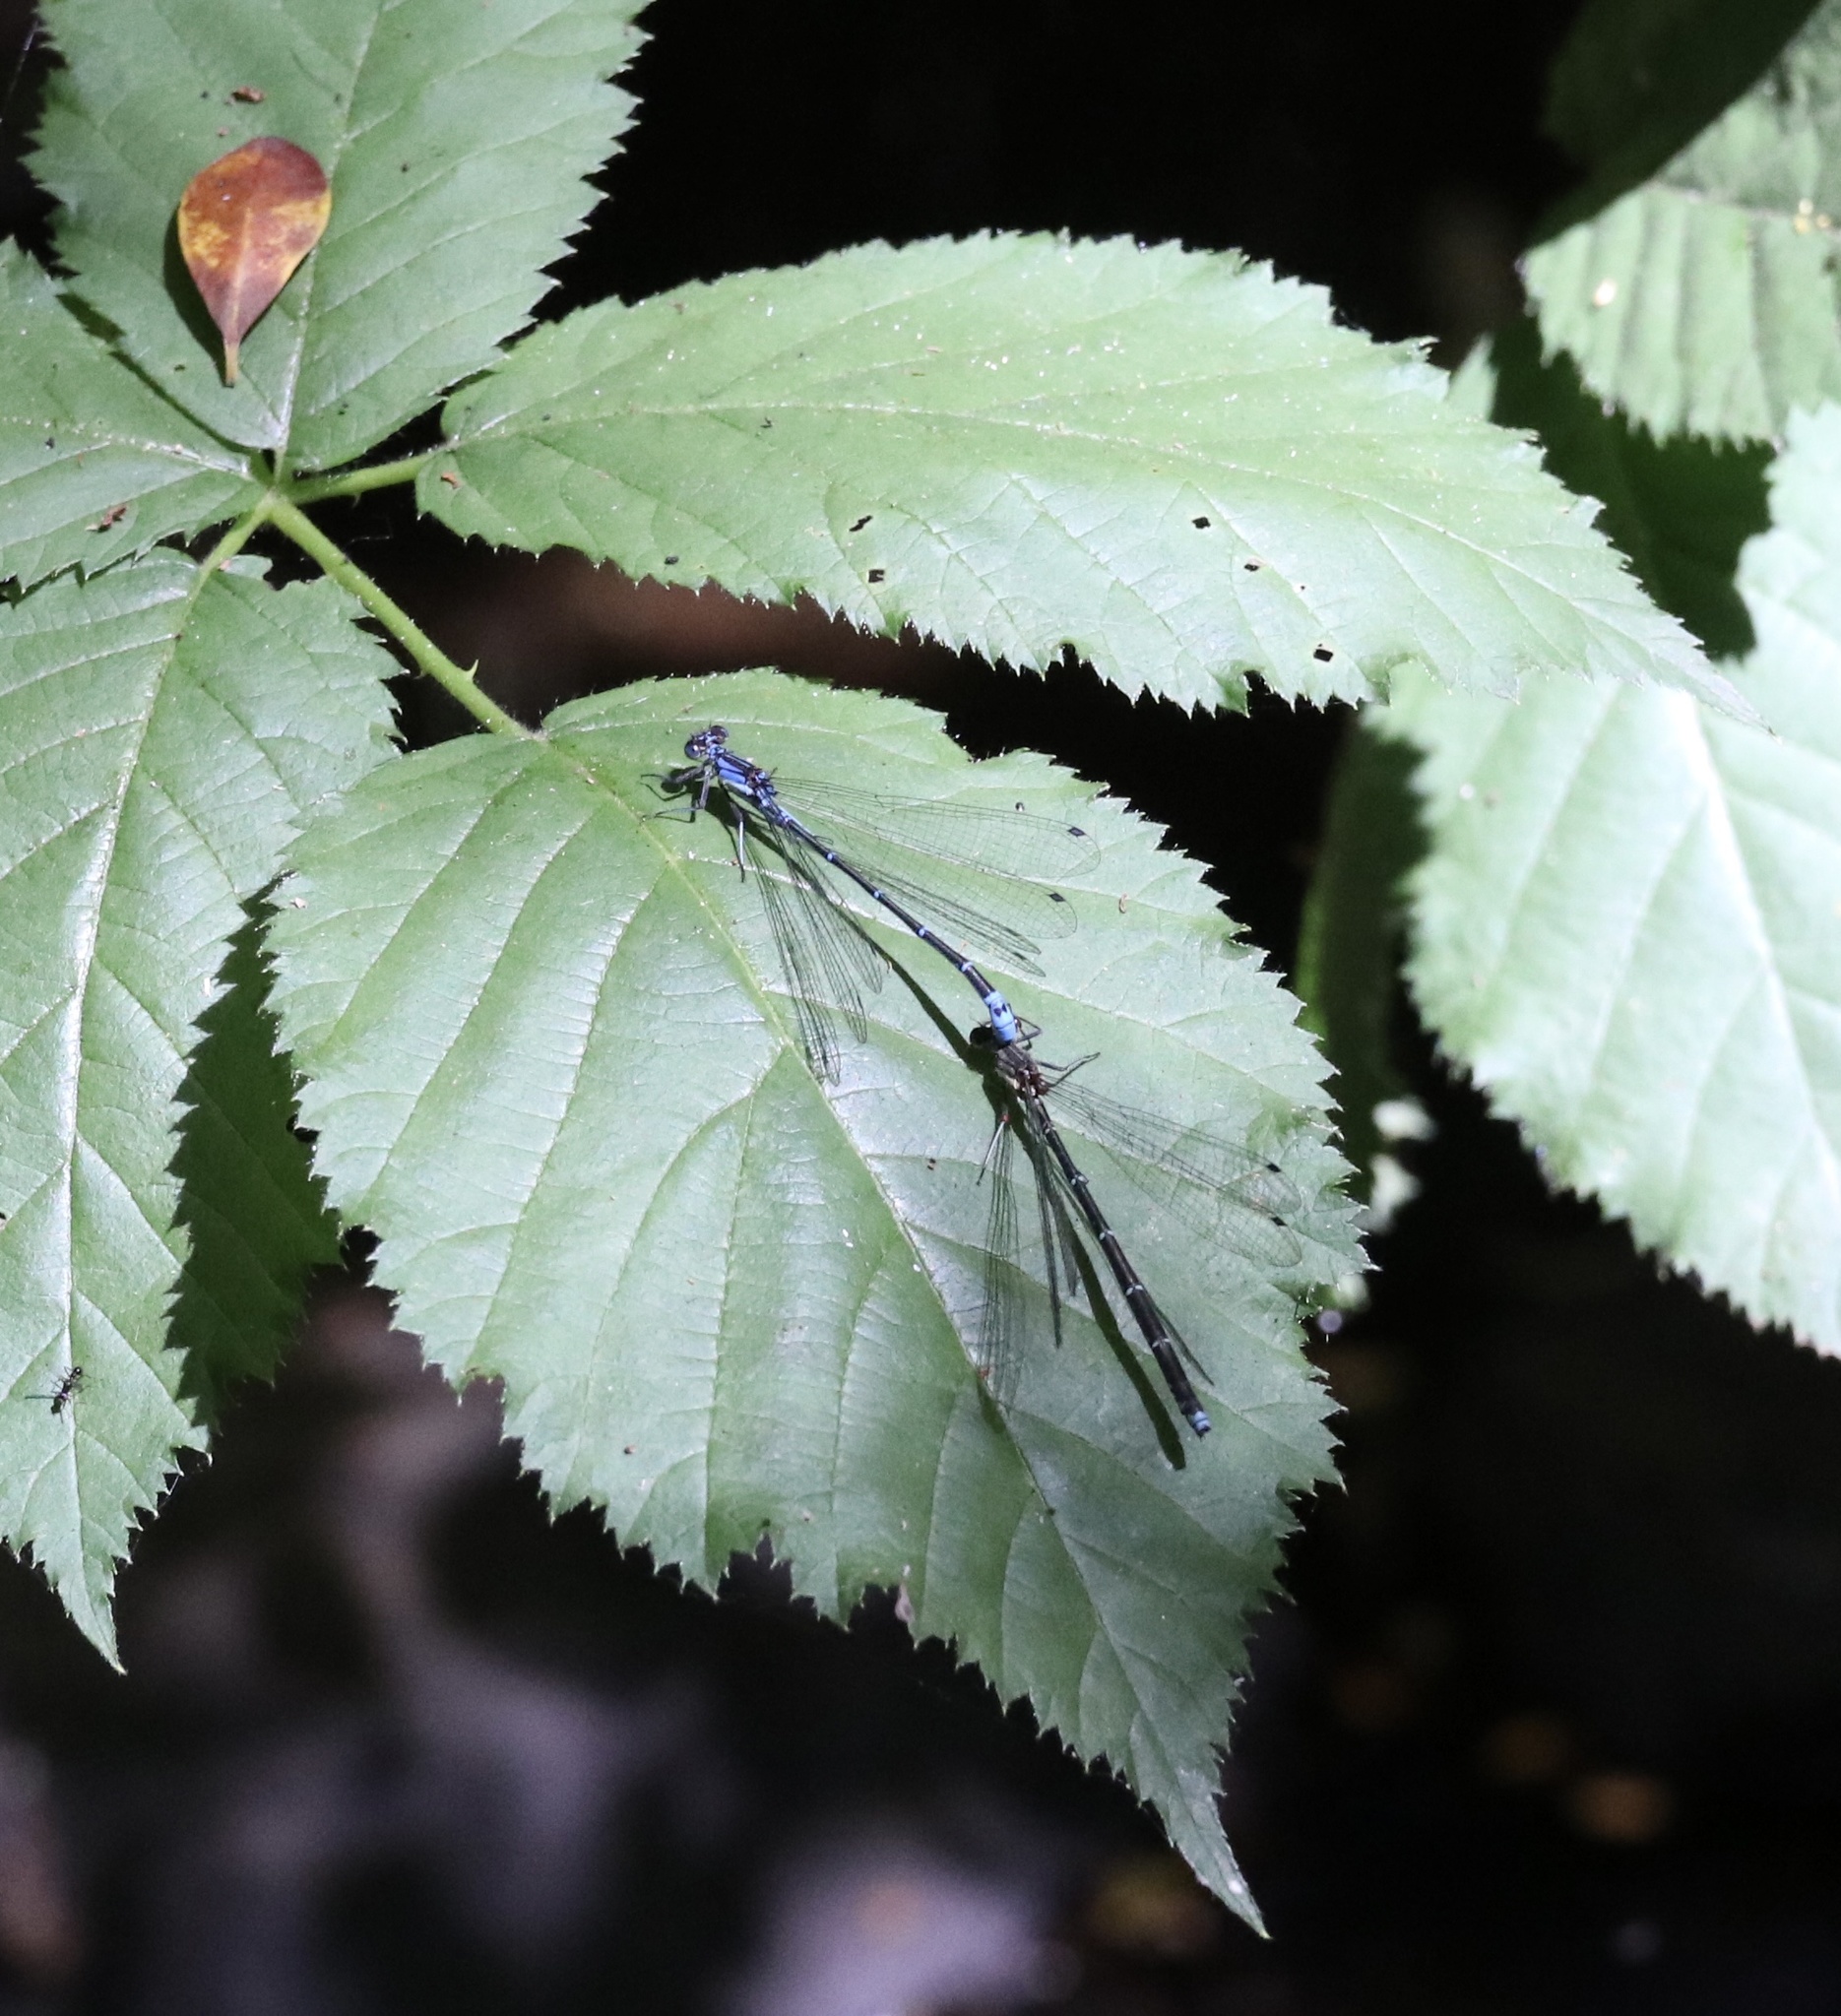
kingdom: Animalia
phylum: Arthropoda
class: Insecta
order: Odonata
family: Coenagrionidae
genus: Antiagrion
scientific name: Antiagrion grinbergsi
